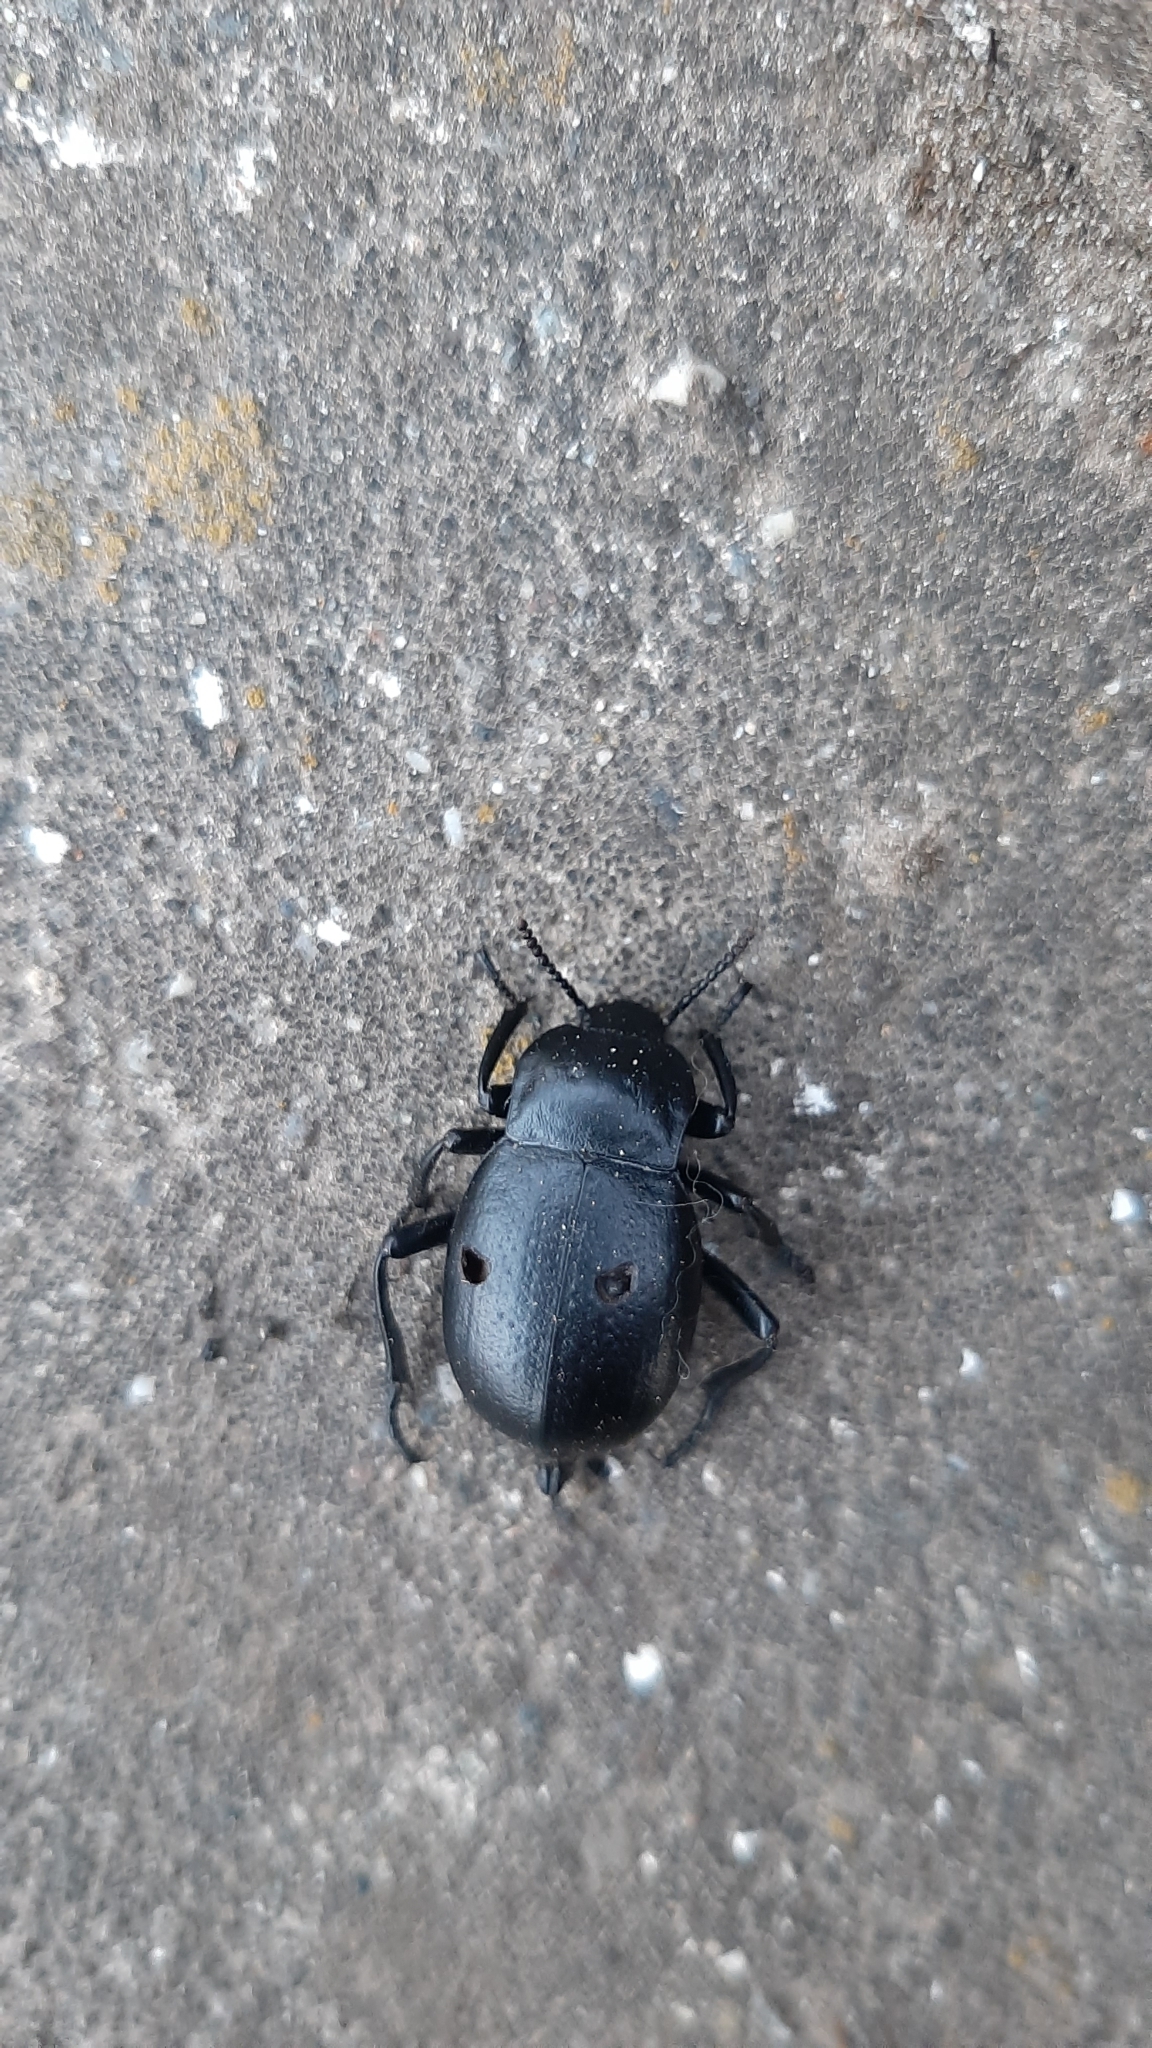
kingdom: Animalia
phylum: Arthropoda
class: Insecta
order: Coleoptera
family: Tenebrionidae
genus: Gnaptor
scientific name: Gnaptor boryi
